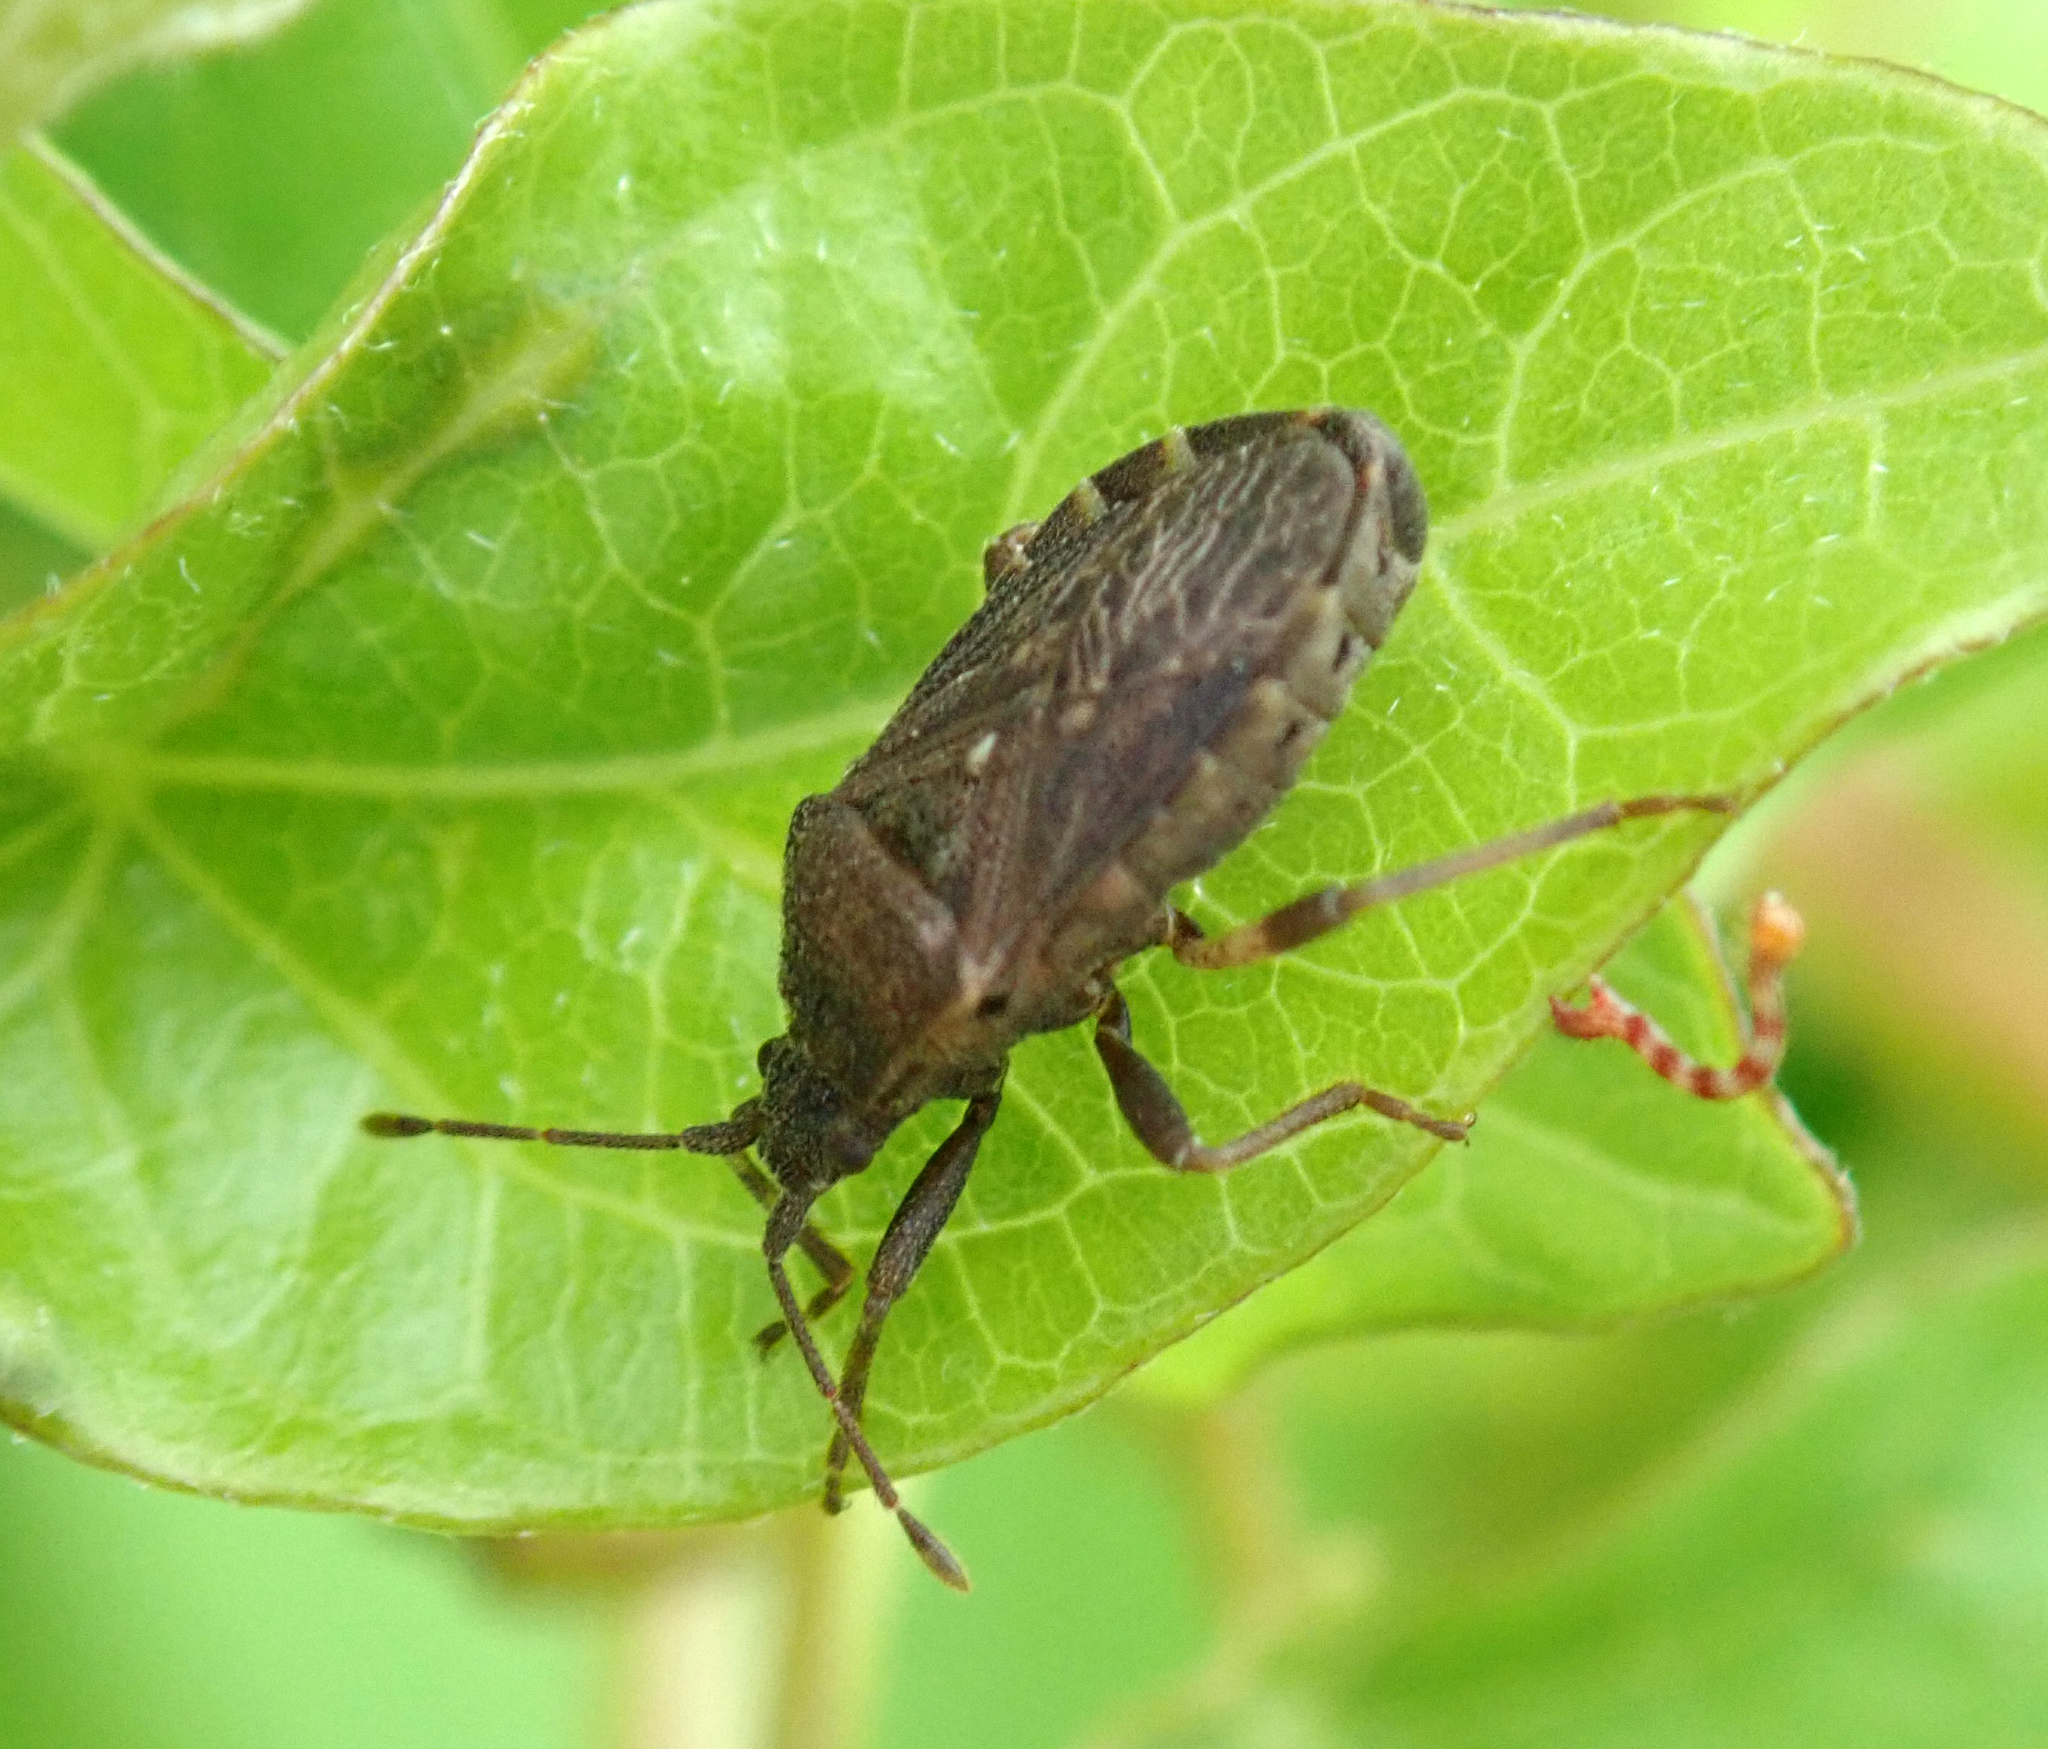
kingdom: Animalia
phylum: Arthropoda
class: Insecta
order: Hemiptera
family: Coreidae
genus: Acantholybas
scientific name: Acantholybas brunneus
